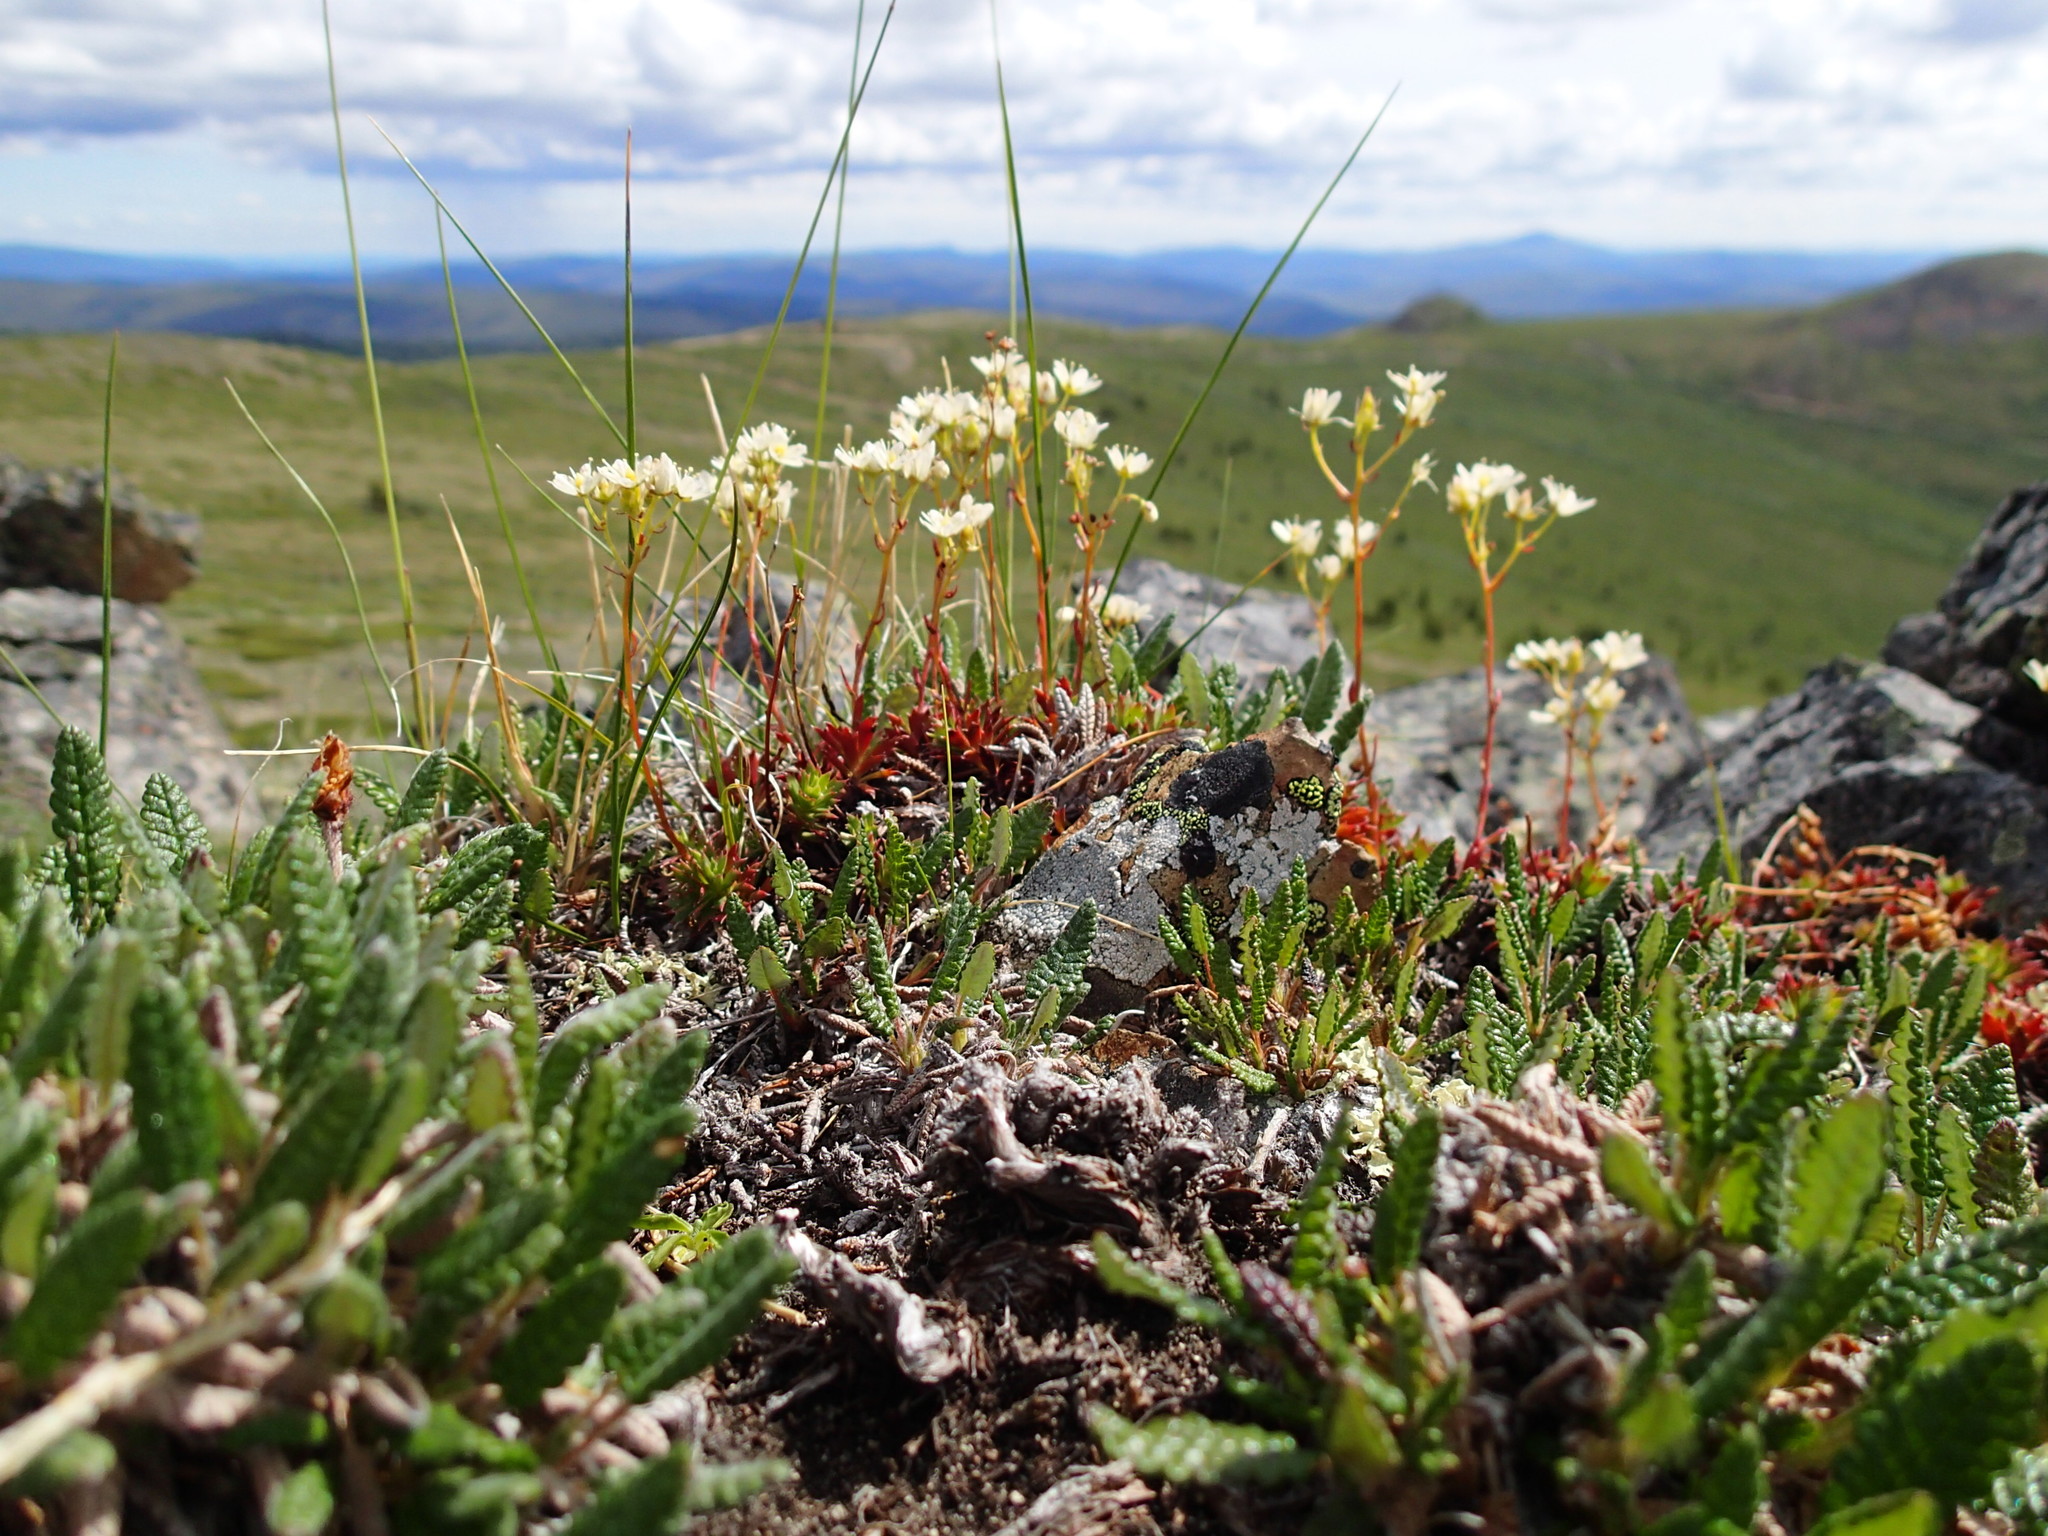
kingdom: Plantae
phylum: Tracheophyta
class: Magnoliopsida
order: Saxifragales
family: Saxifragaceae
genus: Saxifraga
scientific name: Saxifraga tricuspidata
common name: Prickly saxifrage
